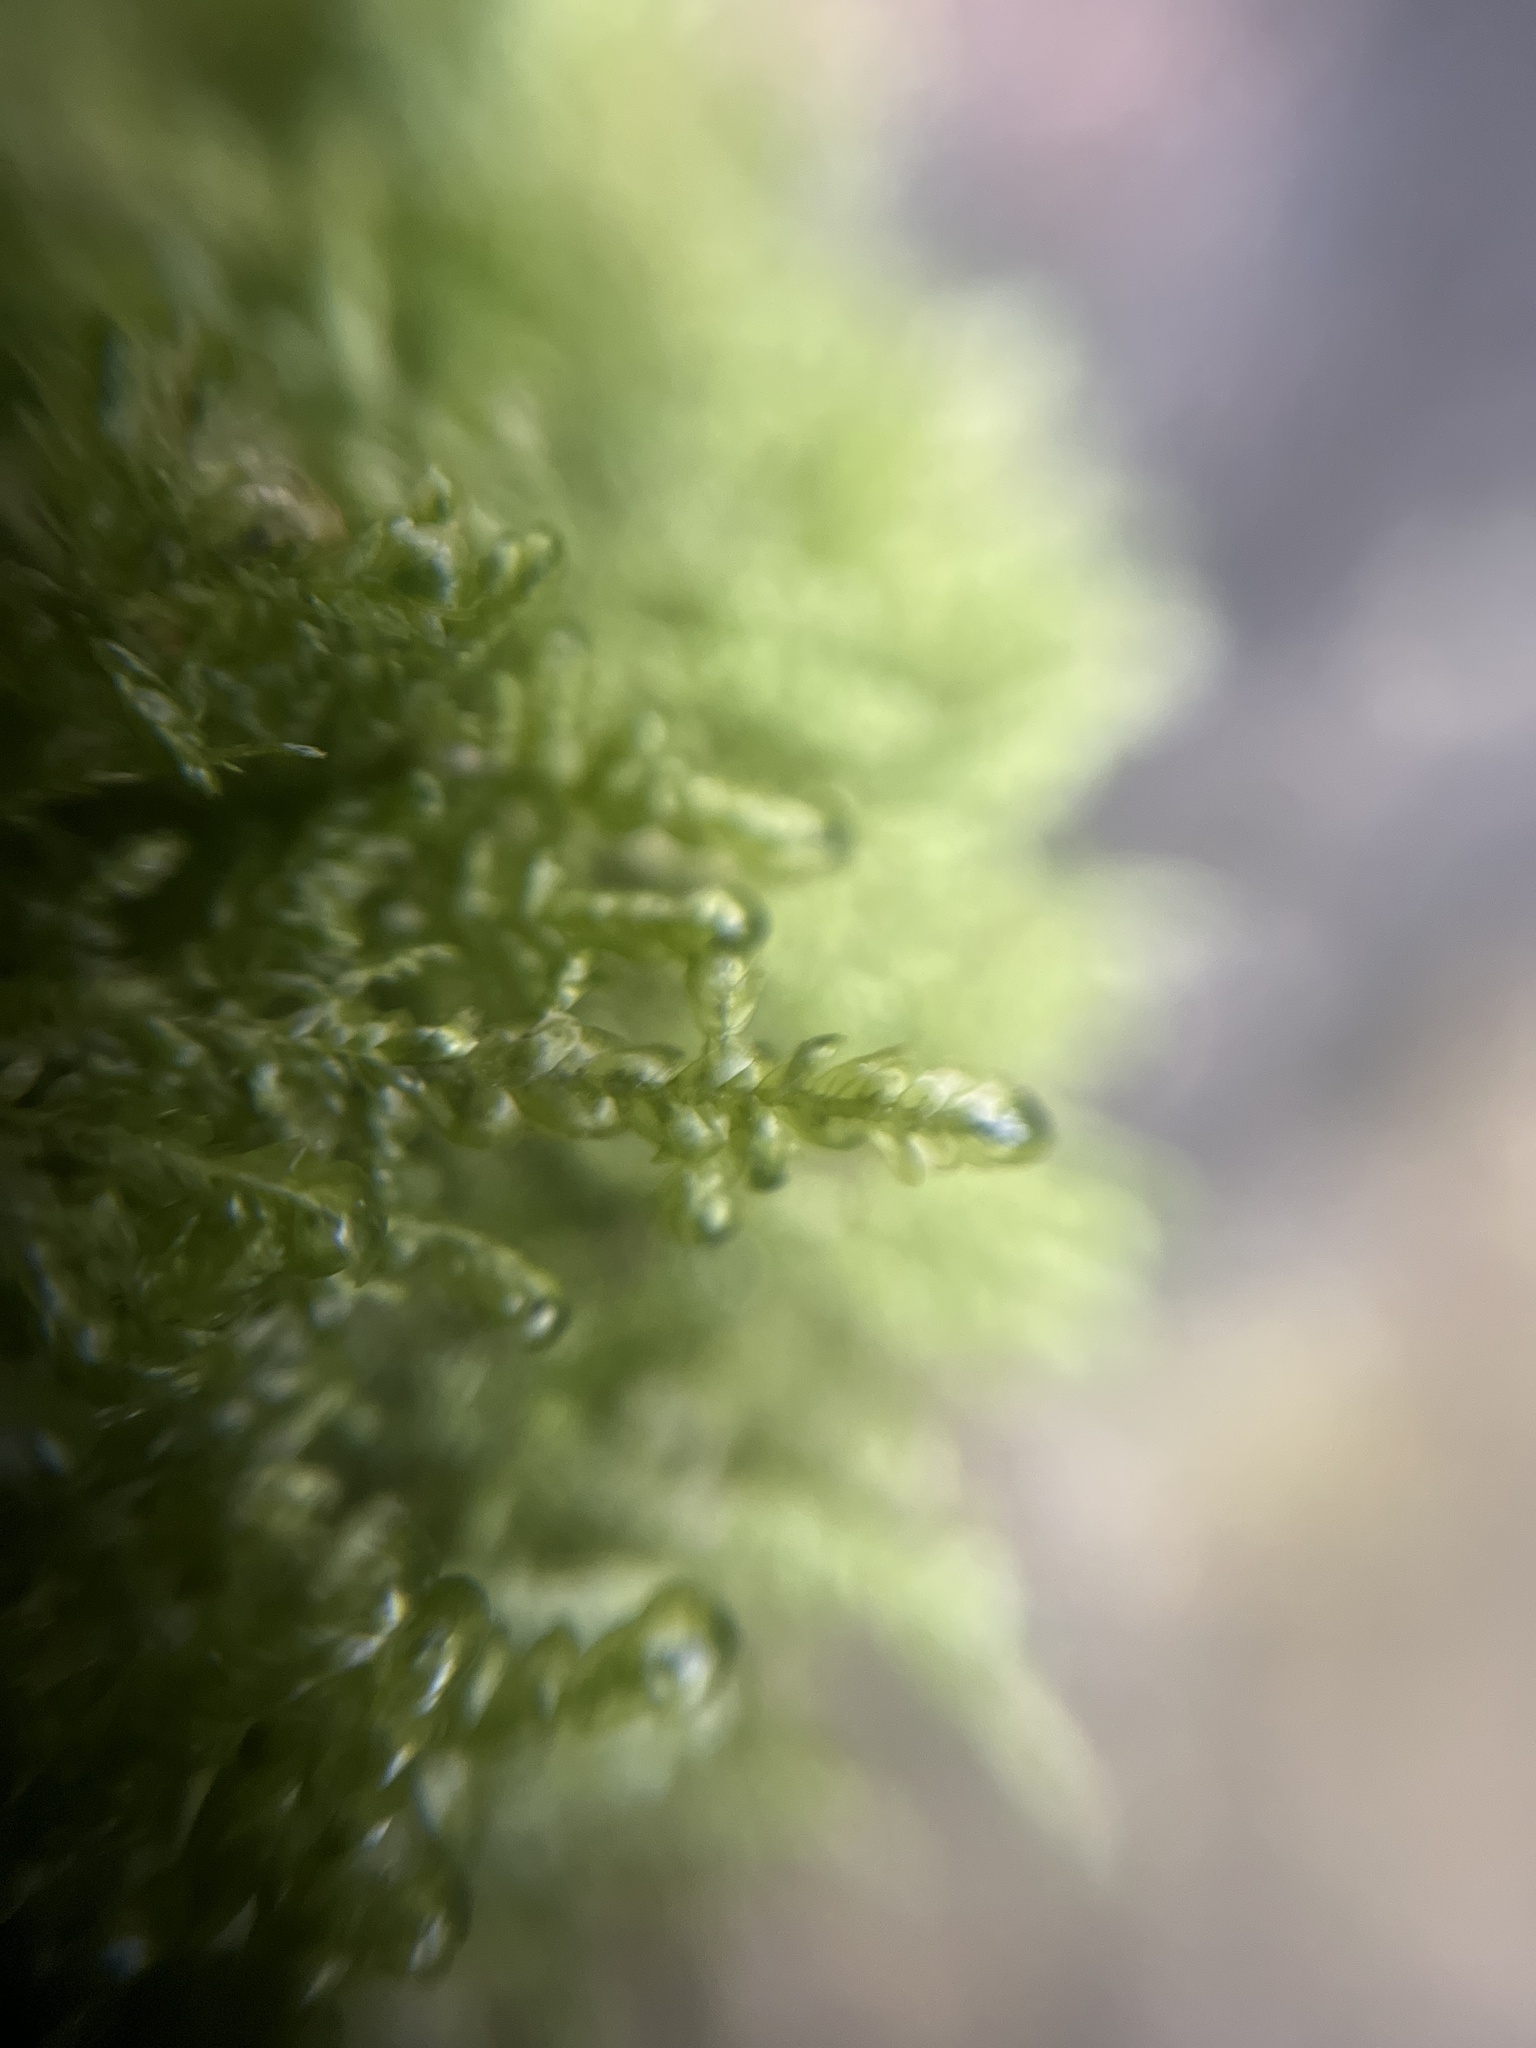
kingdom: Plantae
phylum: Bryophyta
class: Bryopsida
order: Hypnales
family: Neckeraceae
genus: Alleniella
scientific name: Alleniella complanata
